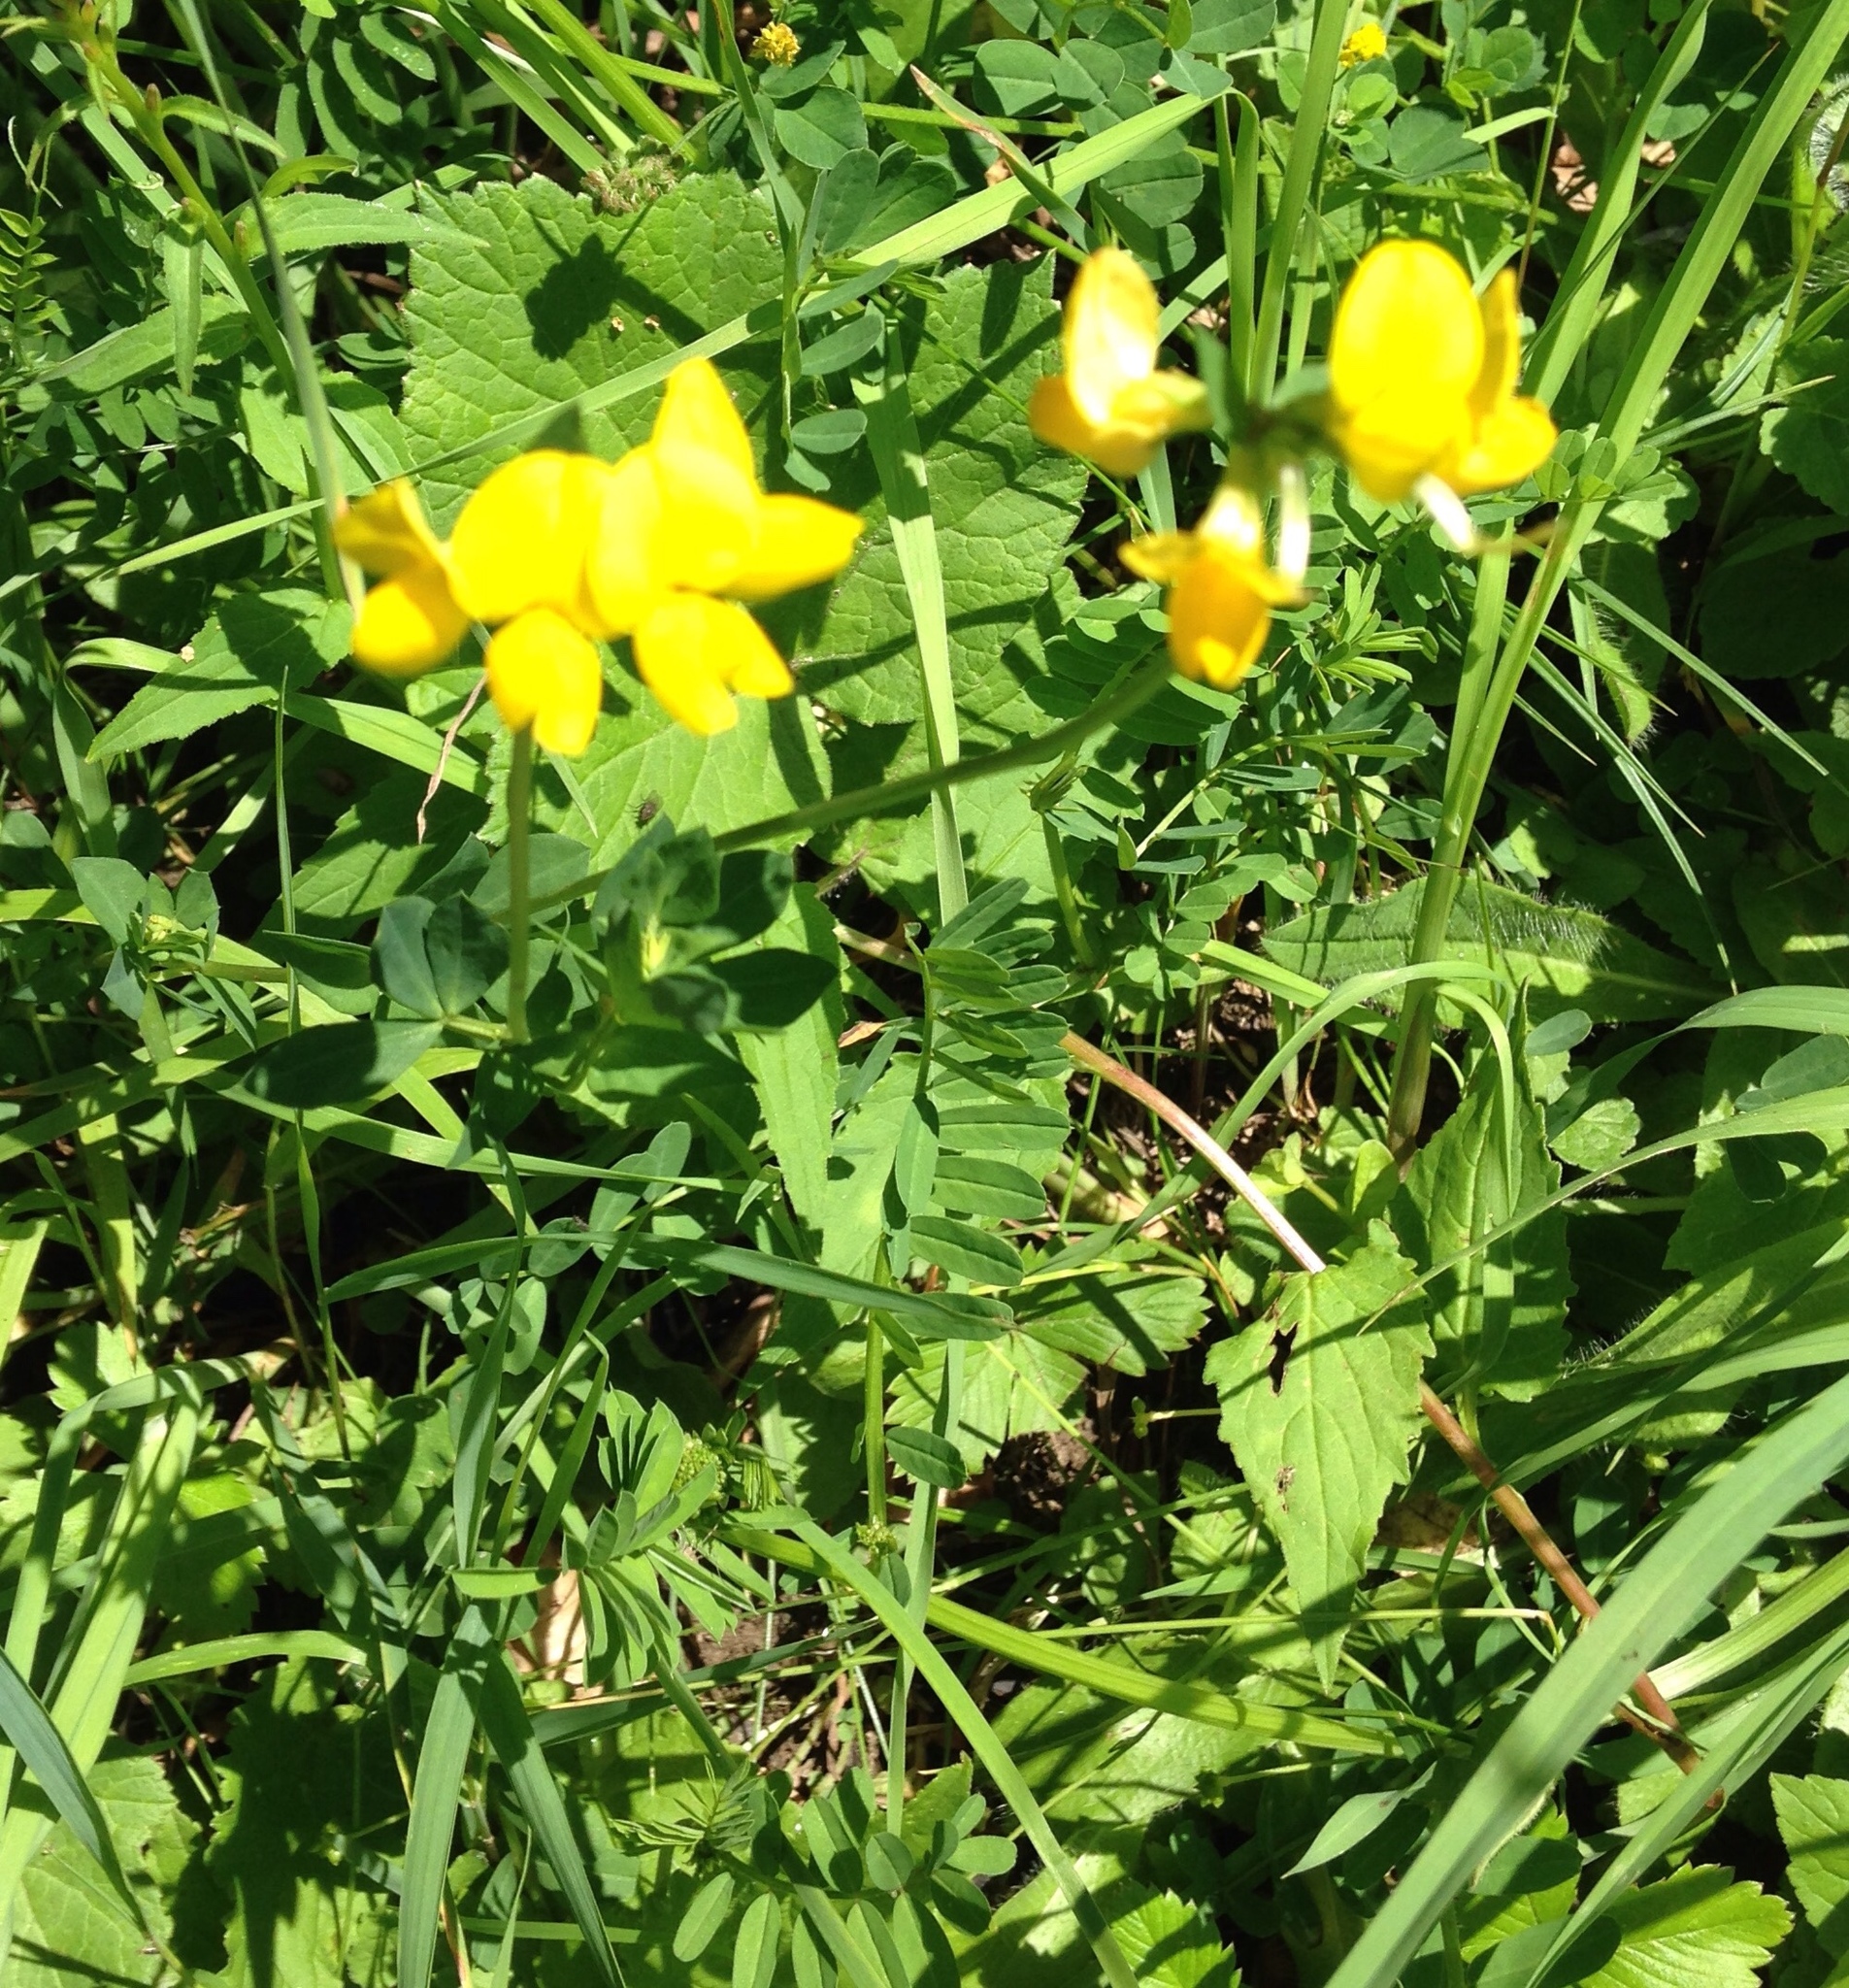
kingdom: Plantae
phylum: Tracheophyta
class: Magnoliopsida
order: Fabales
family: Fabaceae
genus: Lotus
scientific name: Lotus corniculatus
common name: Common bird's-foot-trefoil
